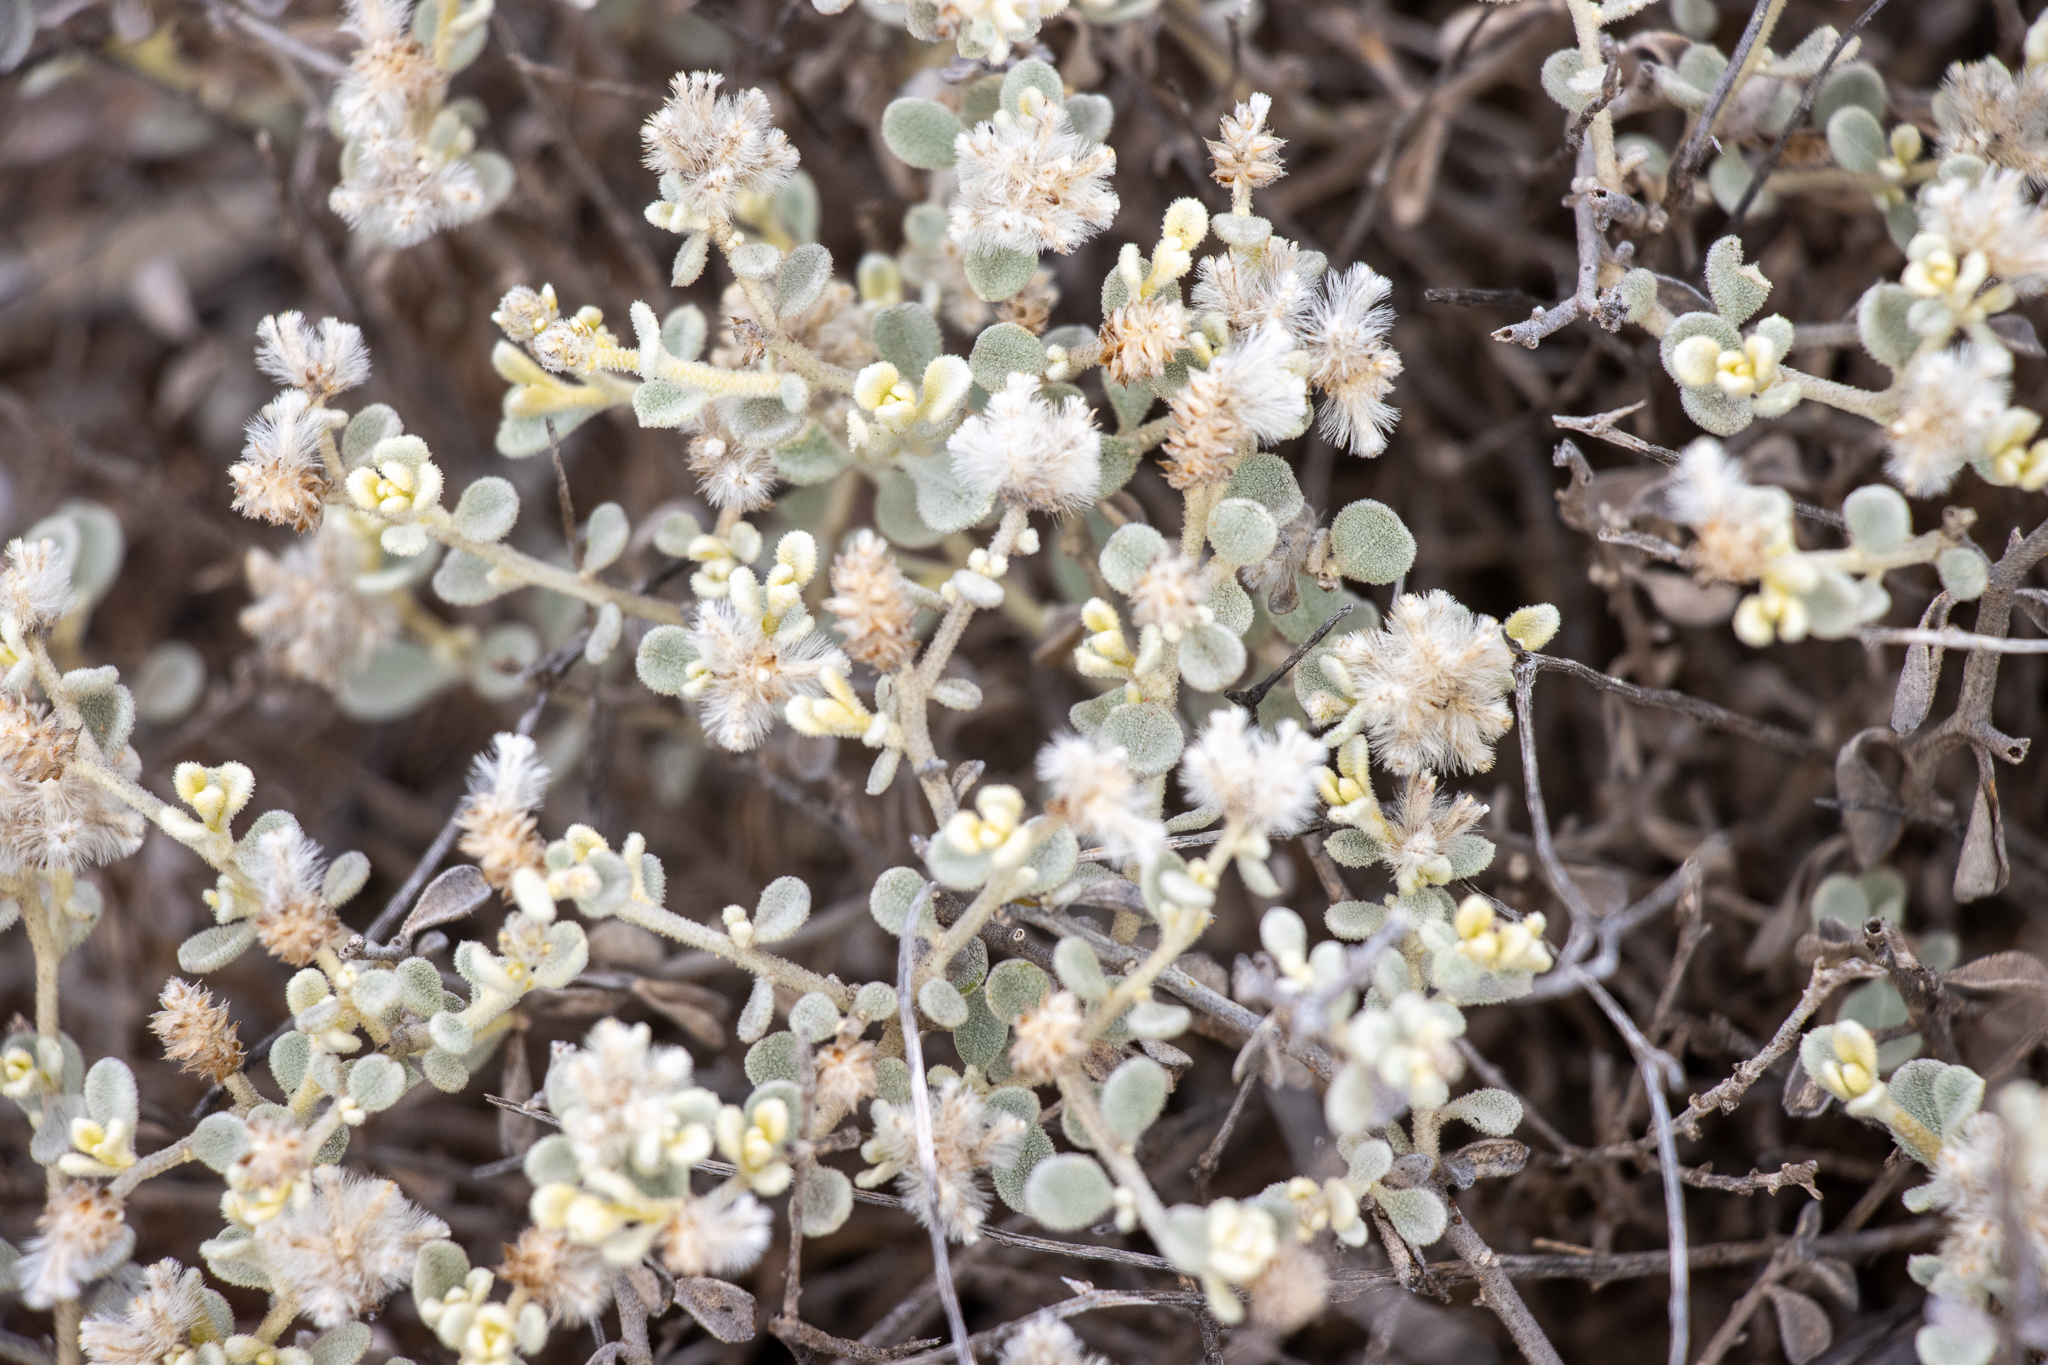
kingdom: Plantae
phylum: Tracheophyta
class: Magnoliopsida
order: Caryophyllales
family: Amaranthaceae
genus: Ptilotus
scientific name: Ptilotus obovatus
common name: Cottonbush
